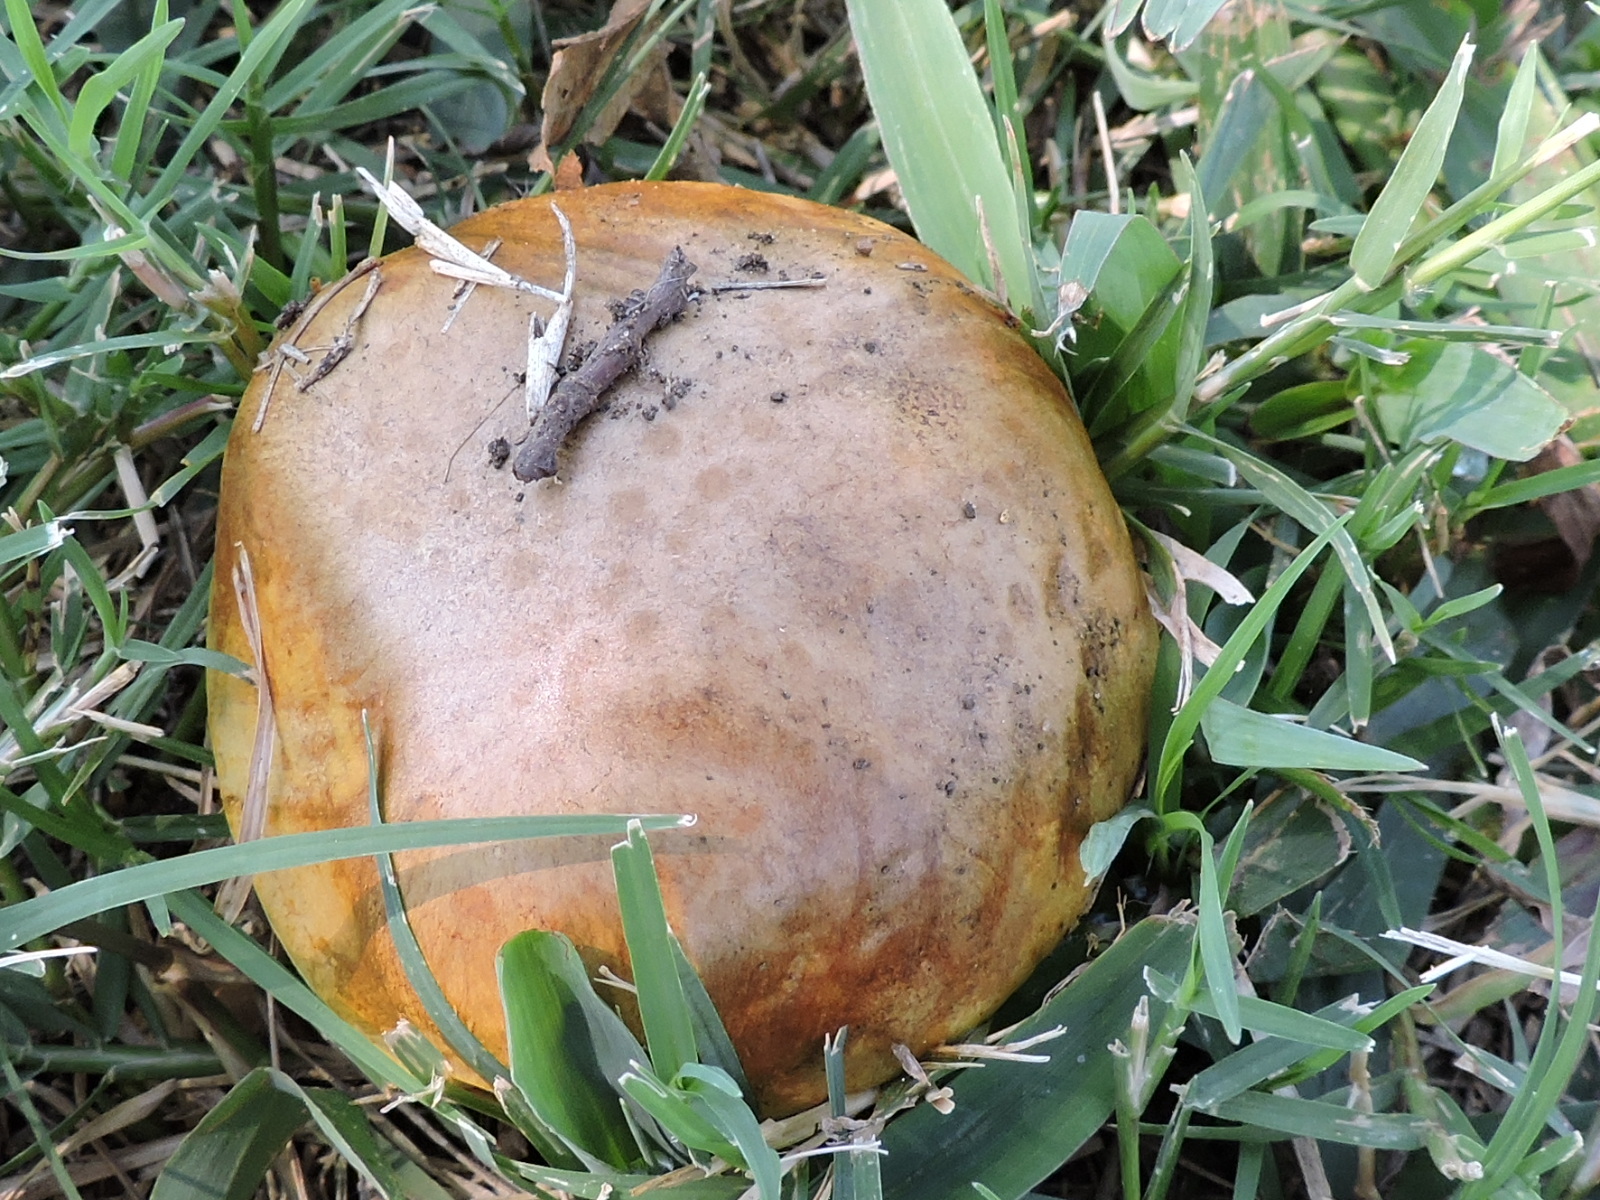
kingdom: Fungi
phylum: Basidiomycota
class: Agaricomycetes
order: Boletales
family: Boletaceae
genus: Boletus
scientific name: Boletus luridellus
